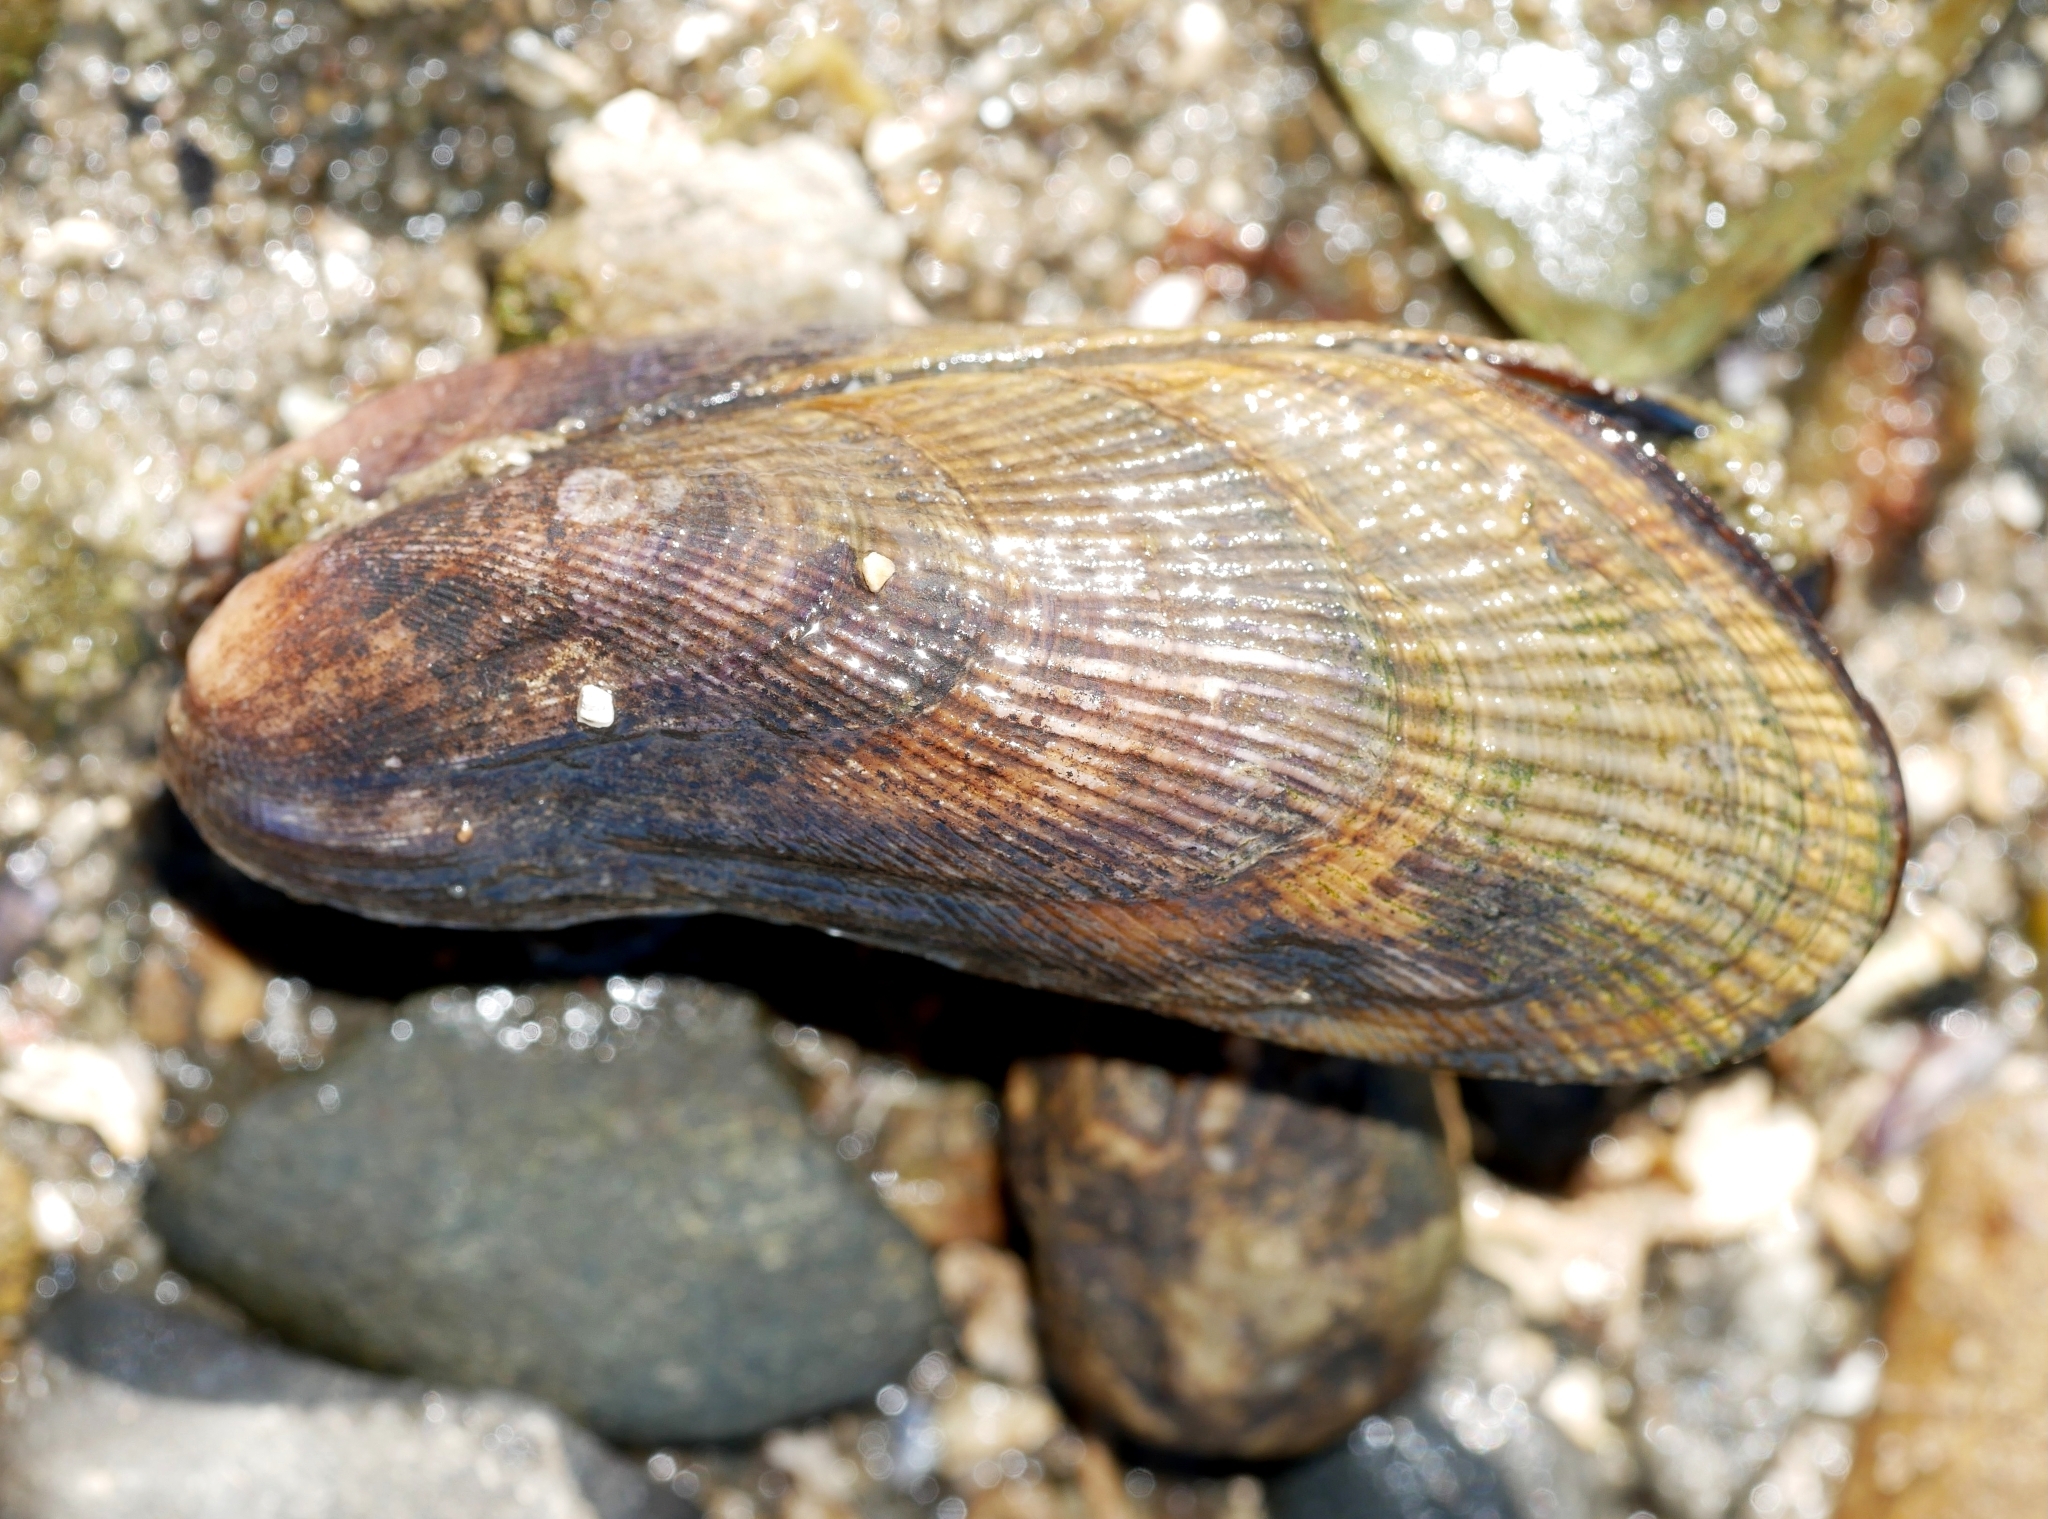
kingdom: Animalia
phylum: Mollusca
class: Bivalvia
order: Mytilida
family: Mytilidae
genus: Geukensia
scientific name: Geukensia demissa
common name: Ribbed mussel
